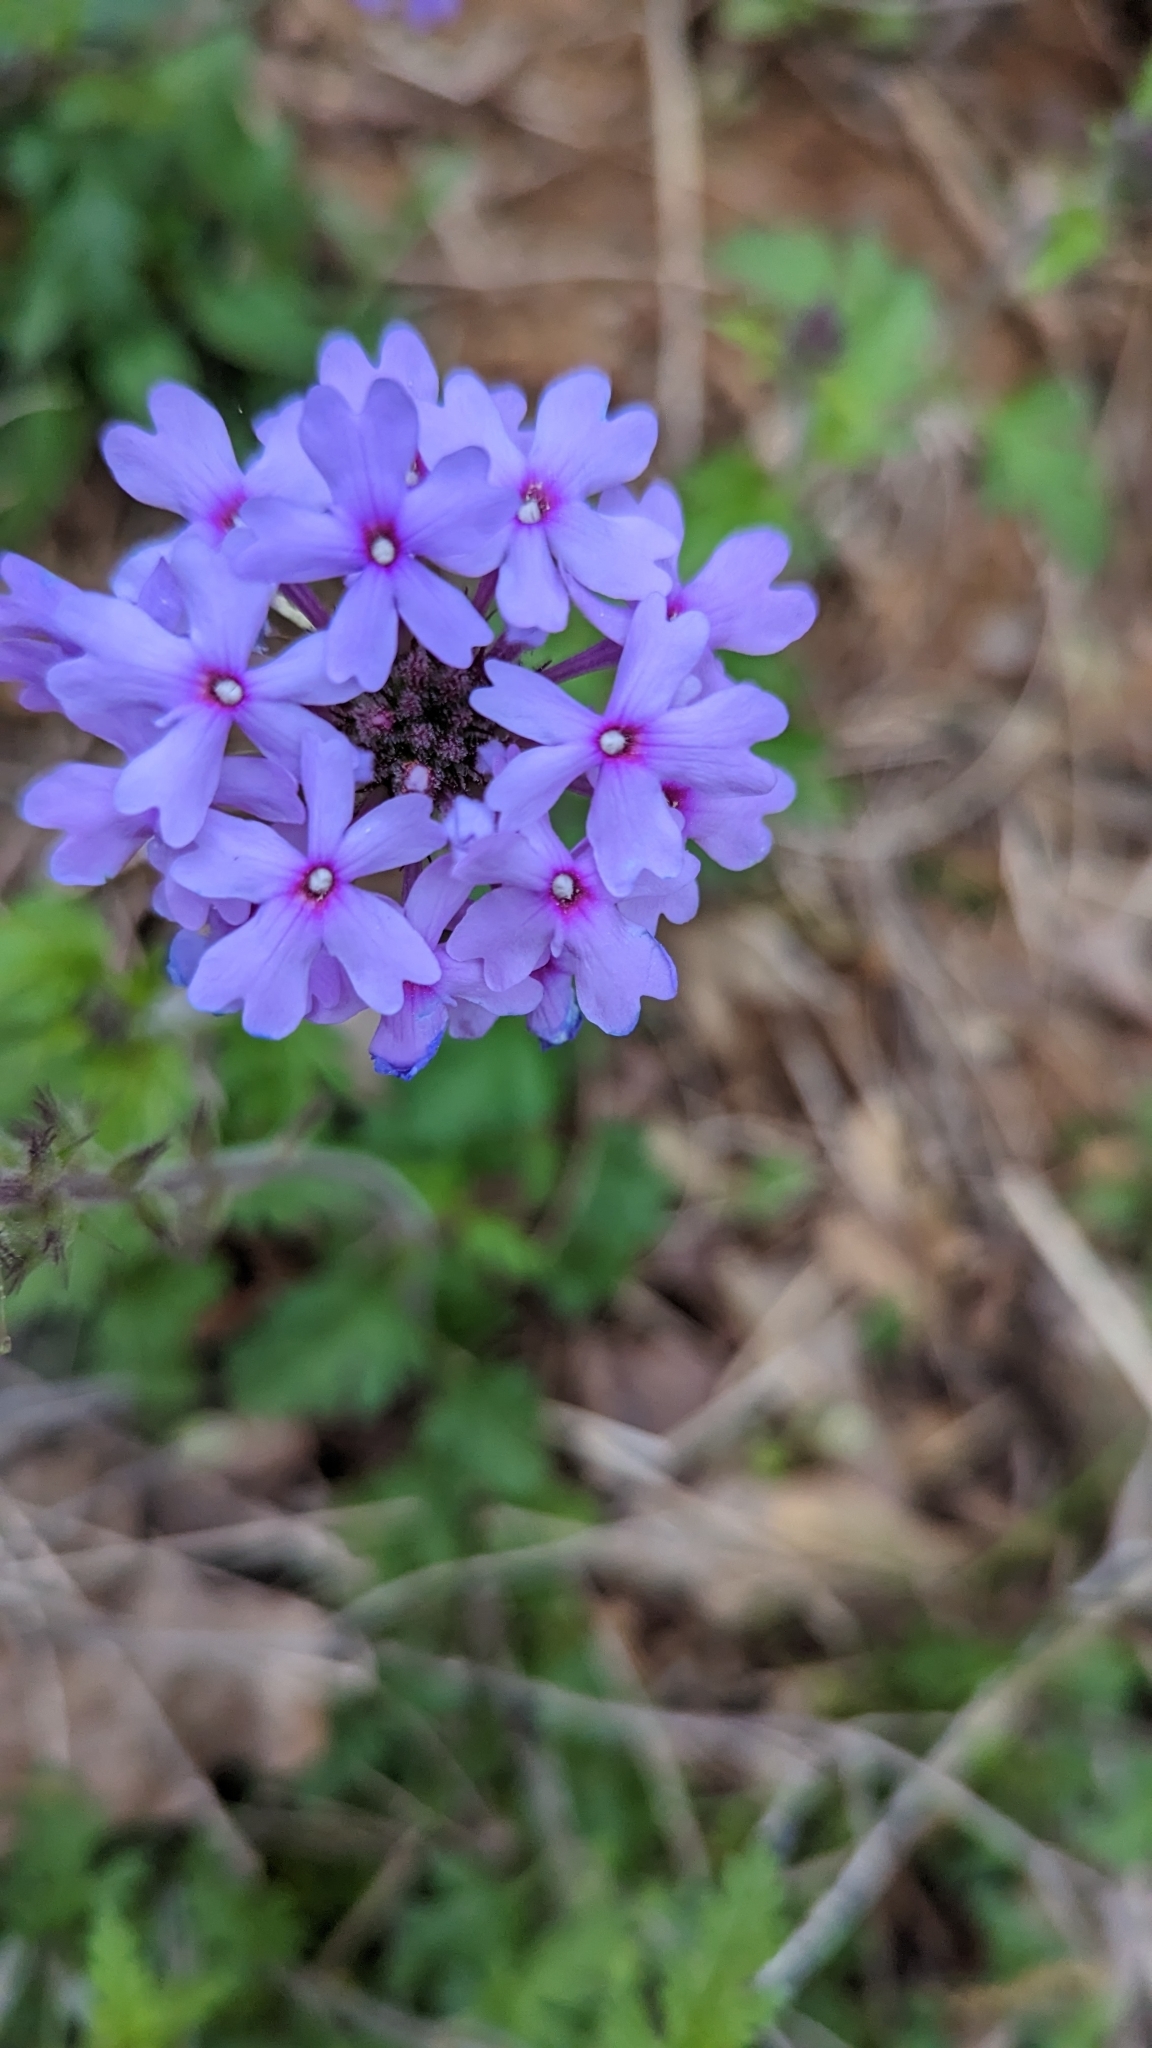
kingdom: Plantae
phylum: Tracheophyta
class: Magnoliopsida
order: Lamiales
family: Verbenaceae
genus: Verbena
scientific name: Verbena canadensis
